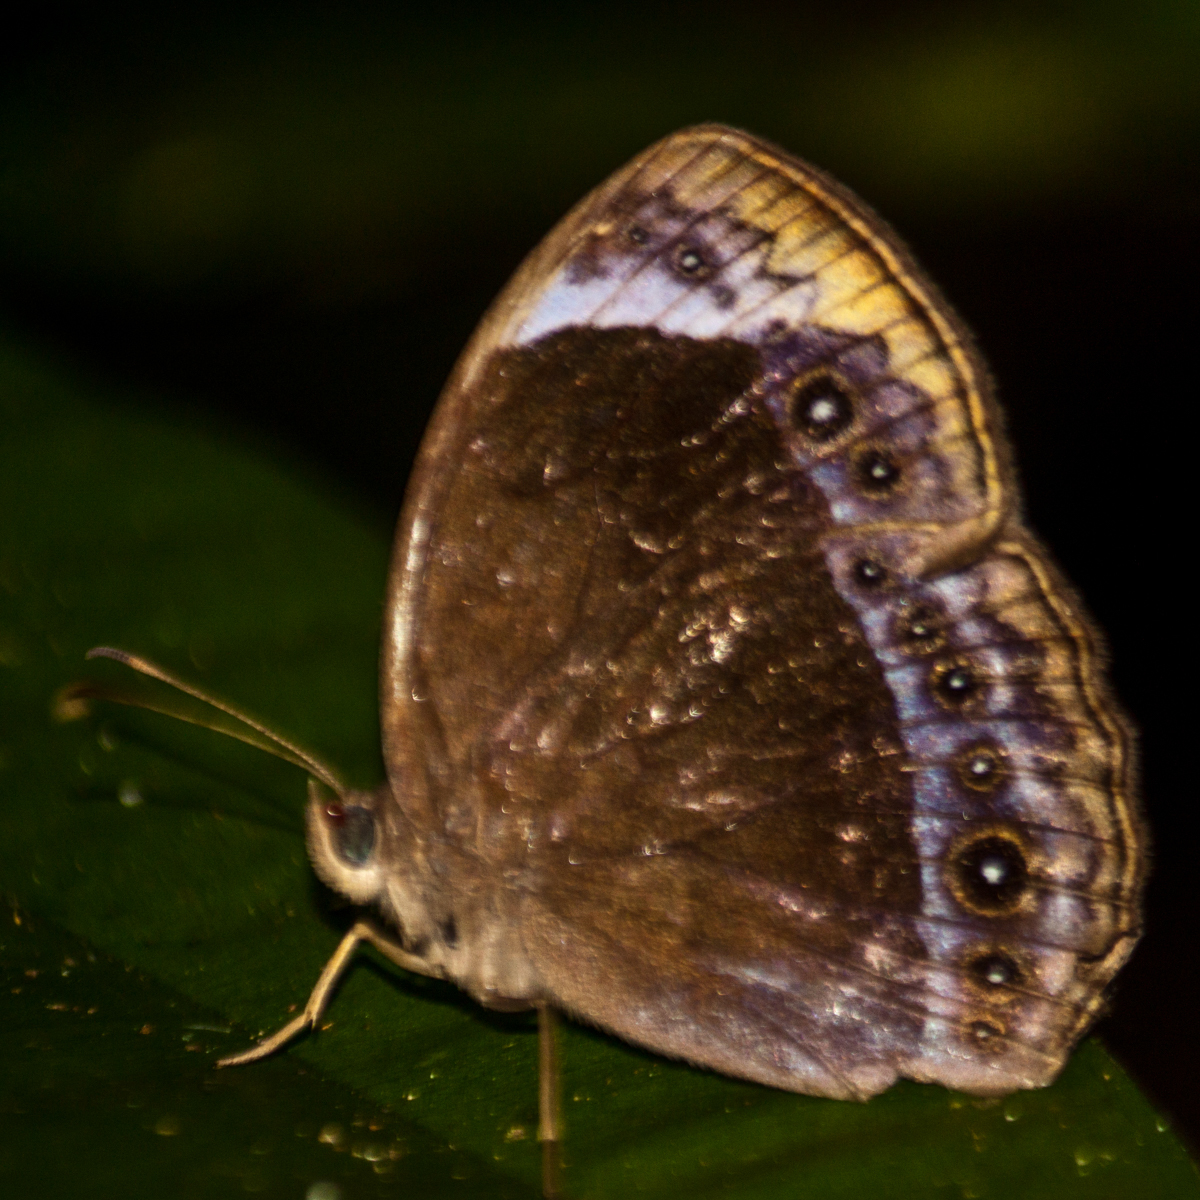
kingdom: Animalia
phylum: Arthropoda
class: Insecta
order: Lepidoptera
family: Nymphalidae
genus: Mycalesis
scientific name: Mycalesis anaxioides
